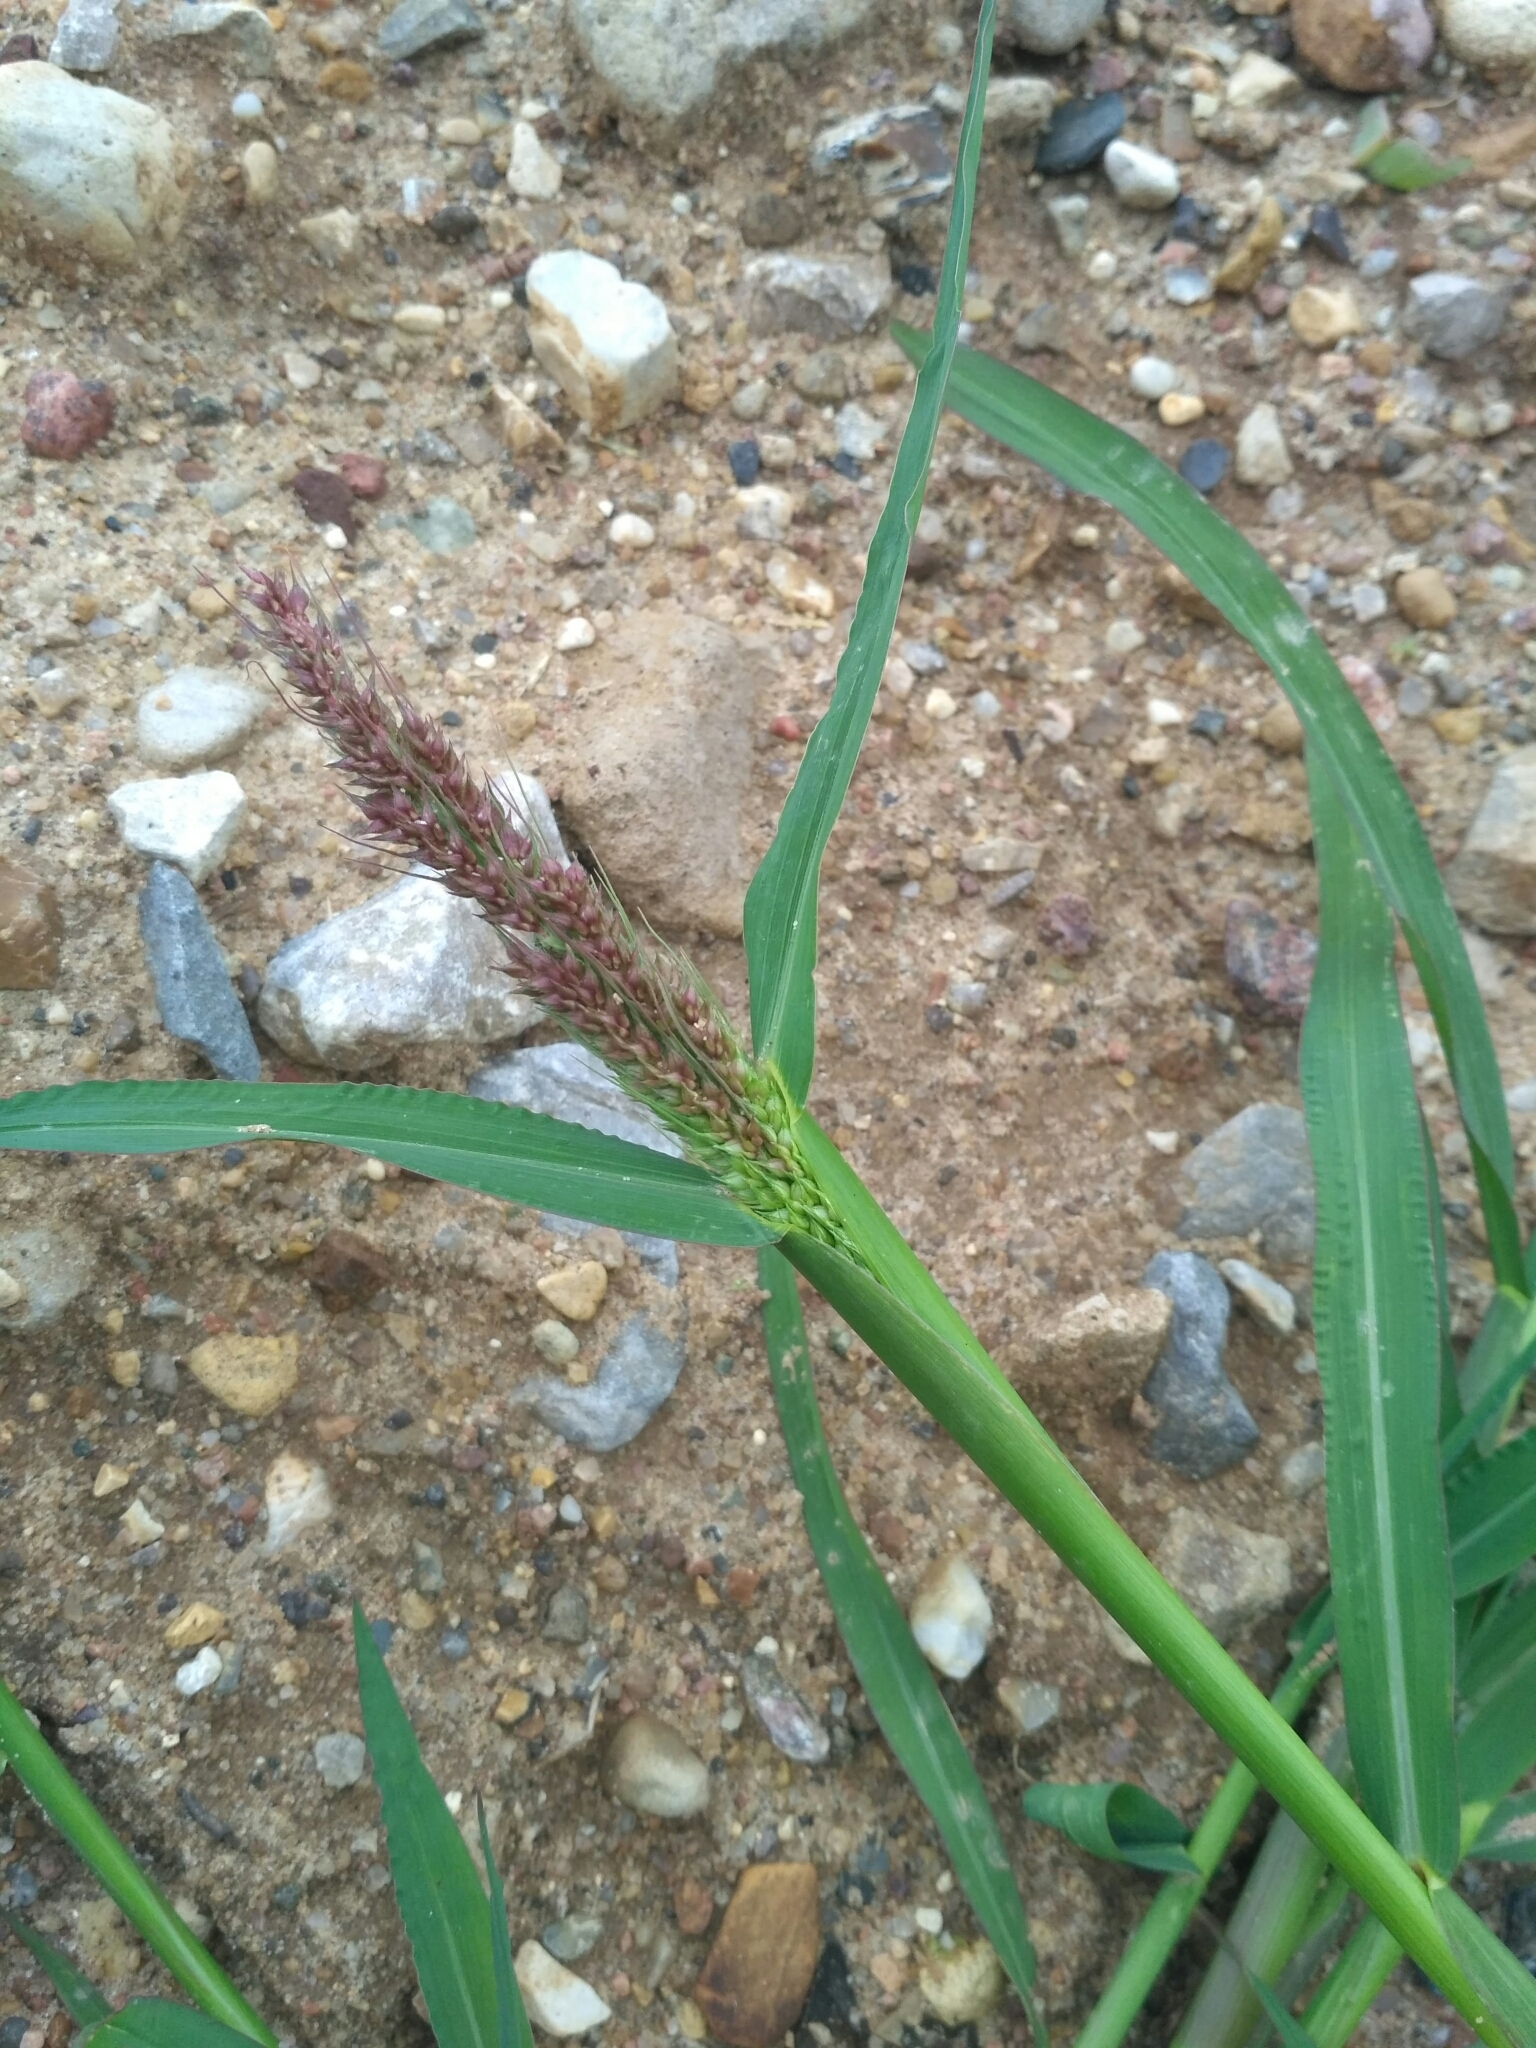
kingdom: Plantae
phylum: Tracheophyta
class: Liliopsida
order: Poales
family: Poaceae
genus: Echinochloa
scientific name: Echinochloa crus-galli
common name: Cockspur
